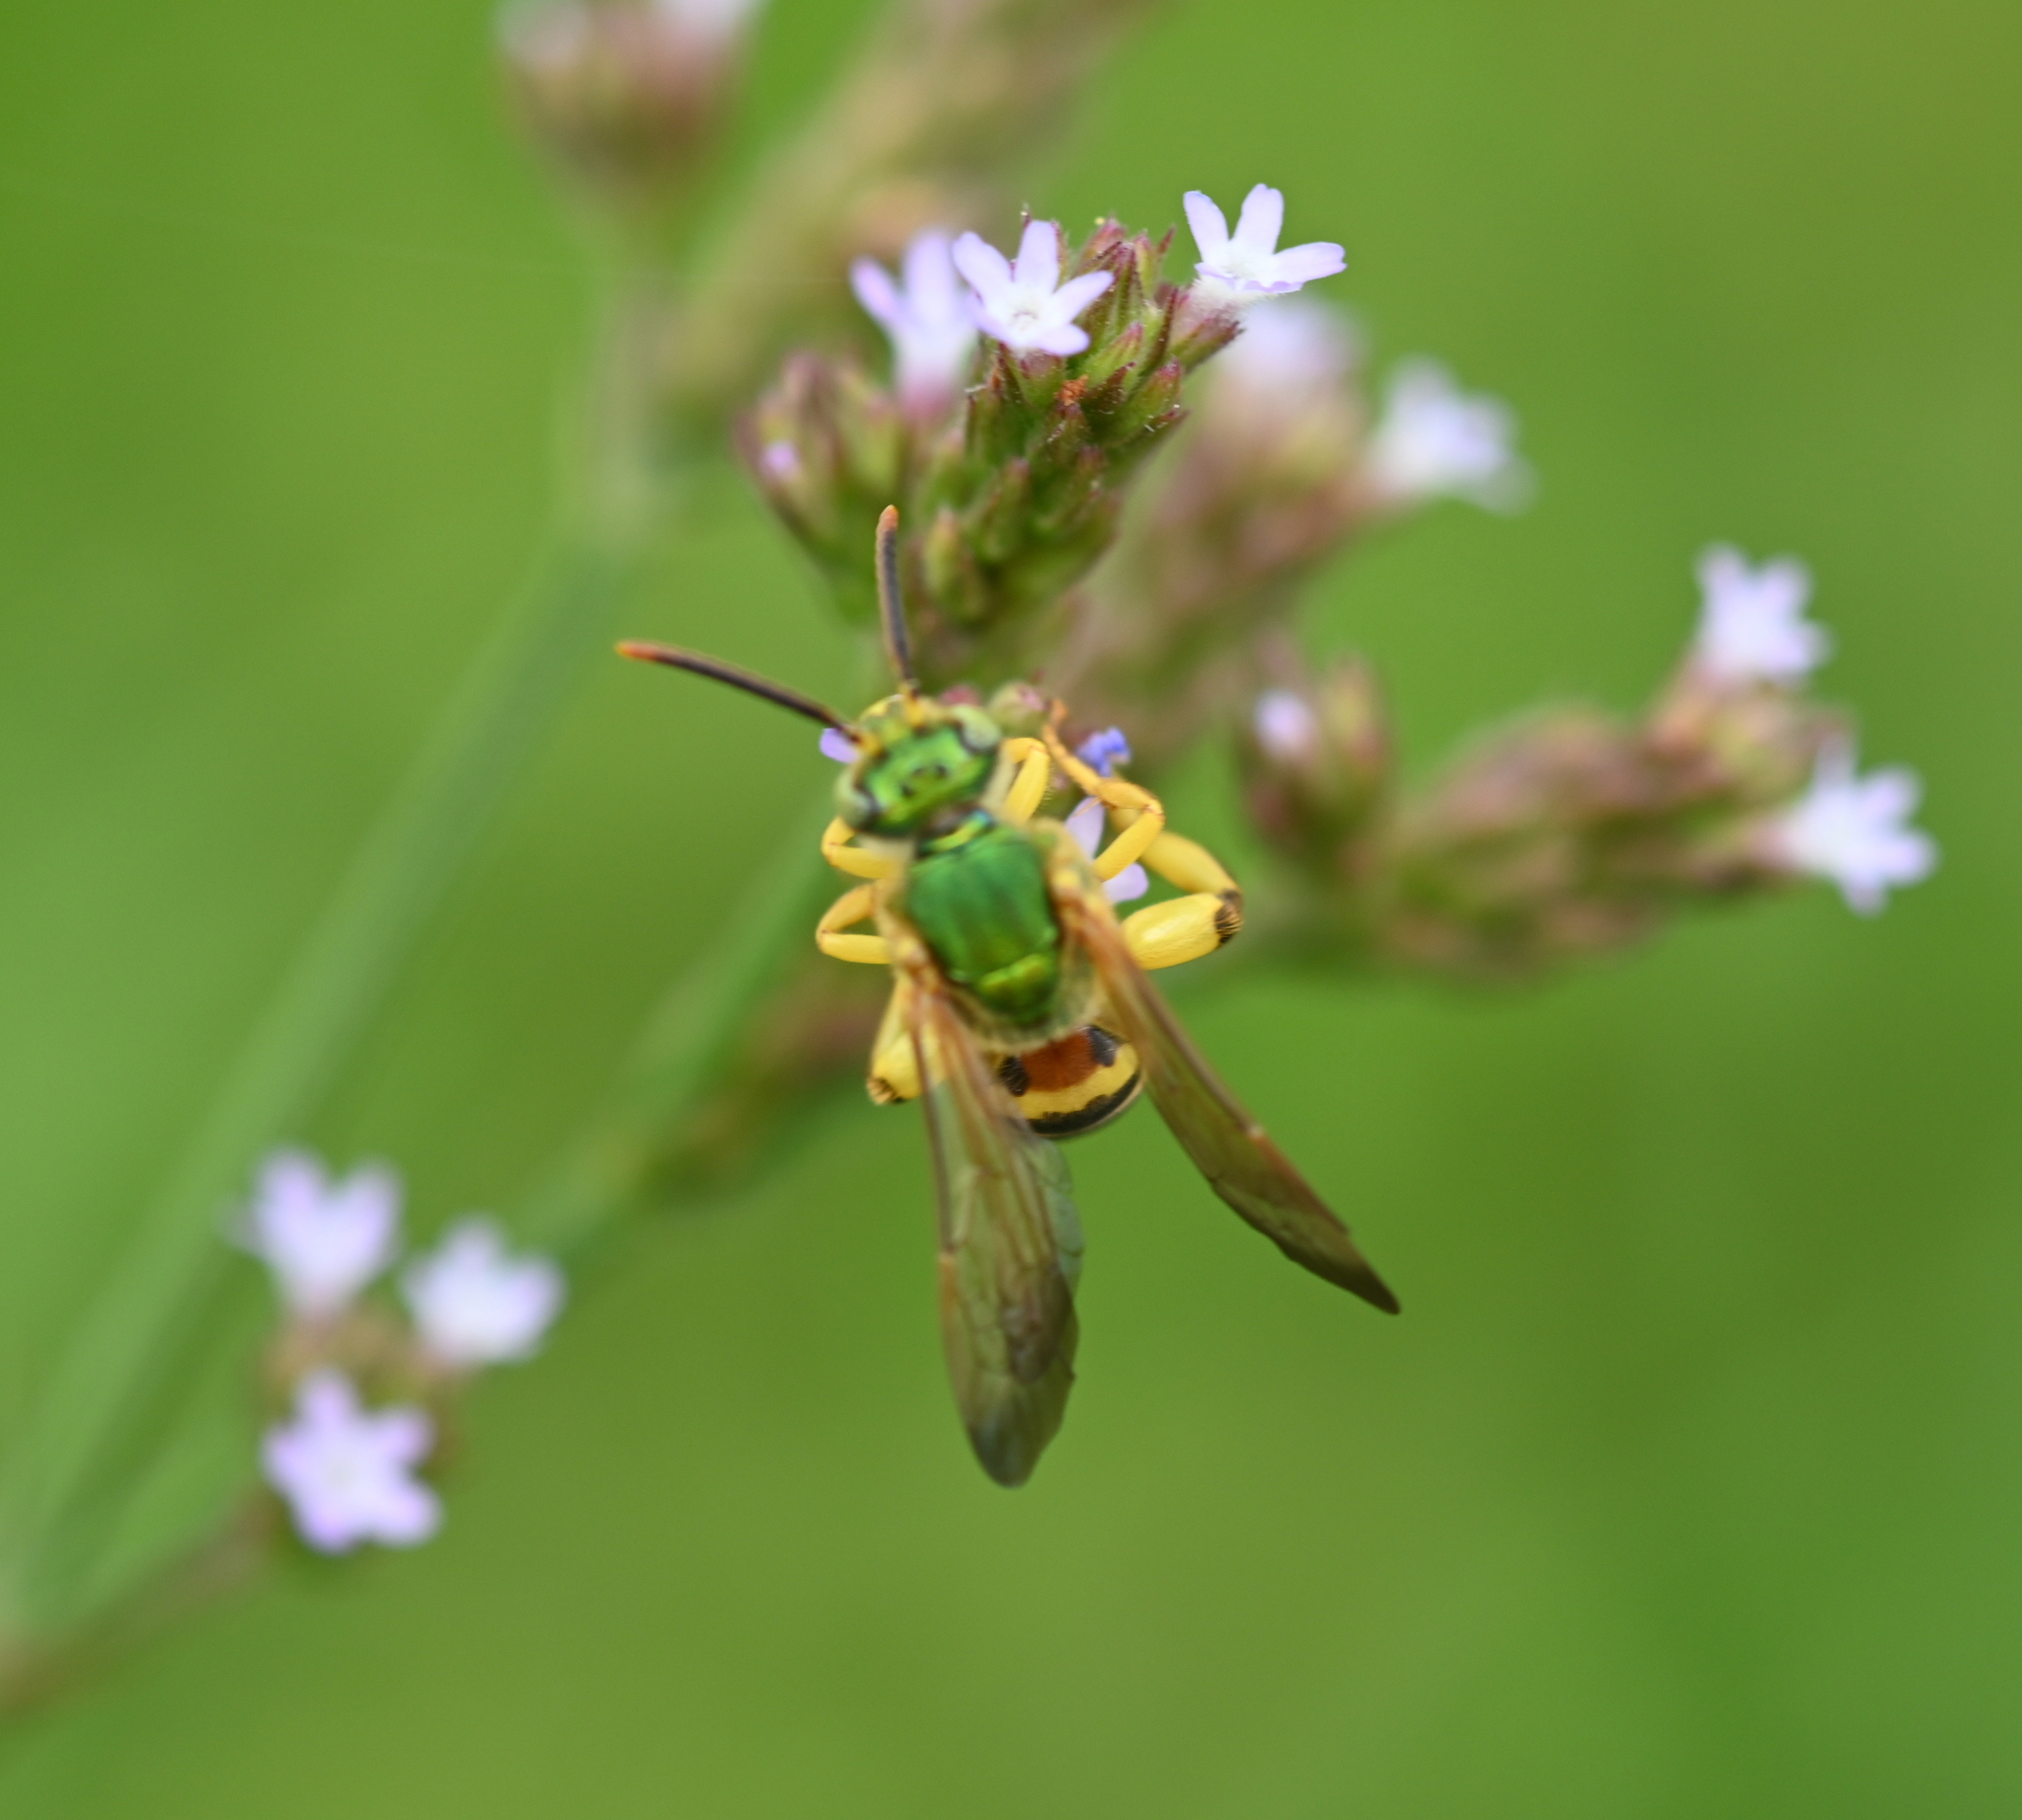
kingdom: Animalia
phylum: Arthropoda
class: Insecta
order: Hymenoptera
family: Halictidae
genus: Agapostemon
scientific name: Agapostemon splendens
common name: Brown-winged striped sweat bee
